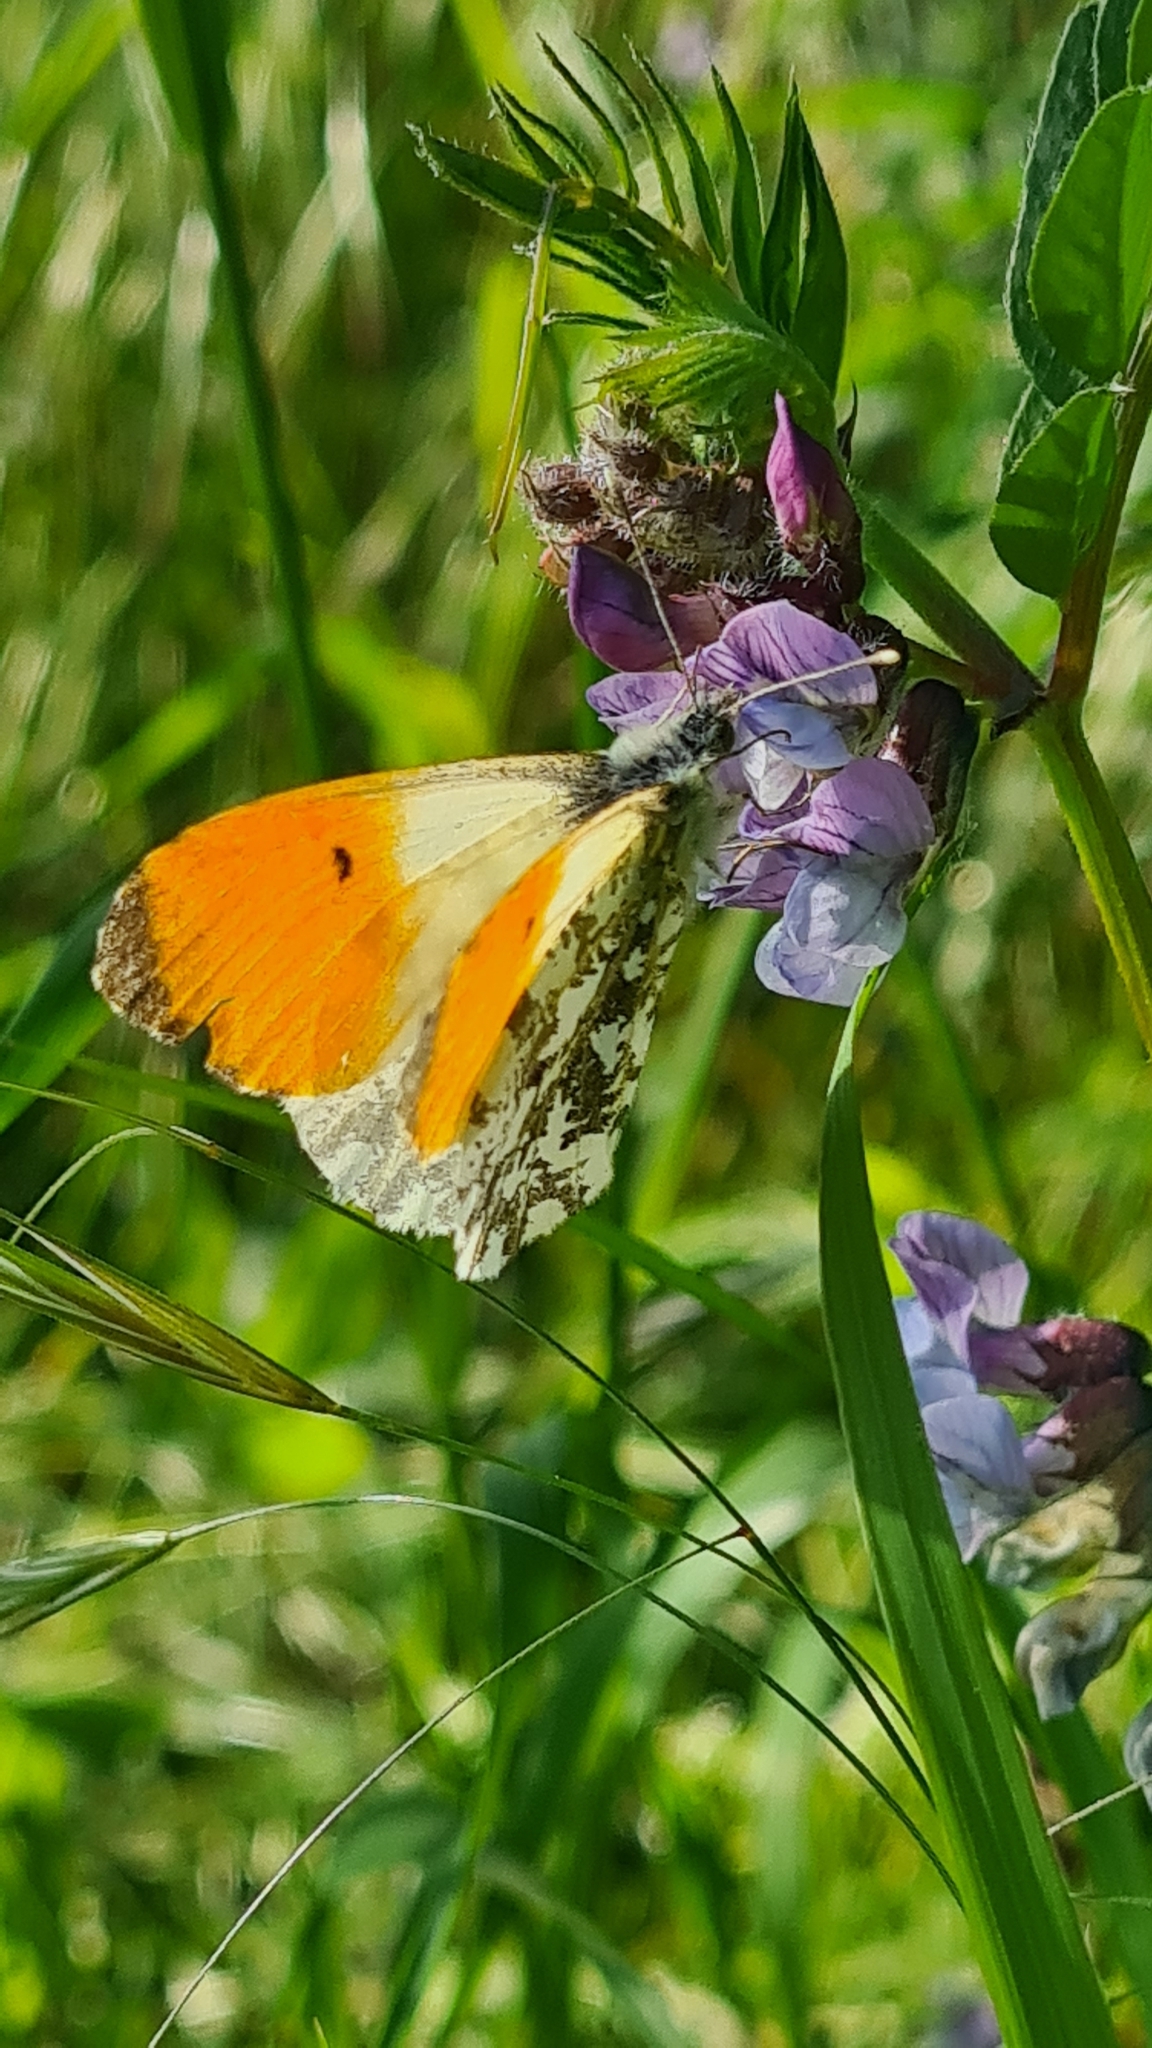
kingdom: Animalia
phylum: Arthropoda
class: Insecta
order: Lepidoptera
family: Pieridae
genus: Anthocharis
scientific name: Anthocharis cardamines
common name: Orange-tip
